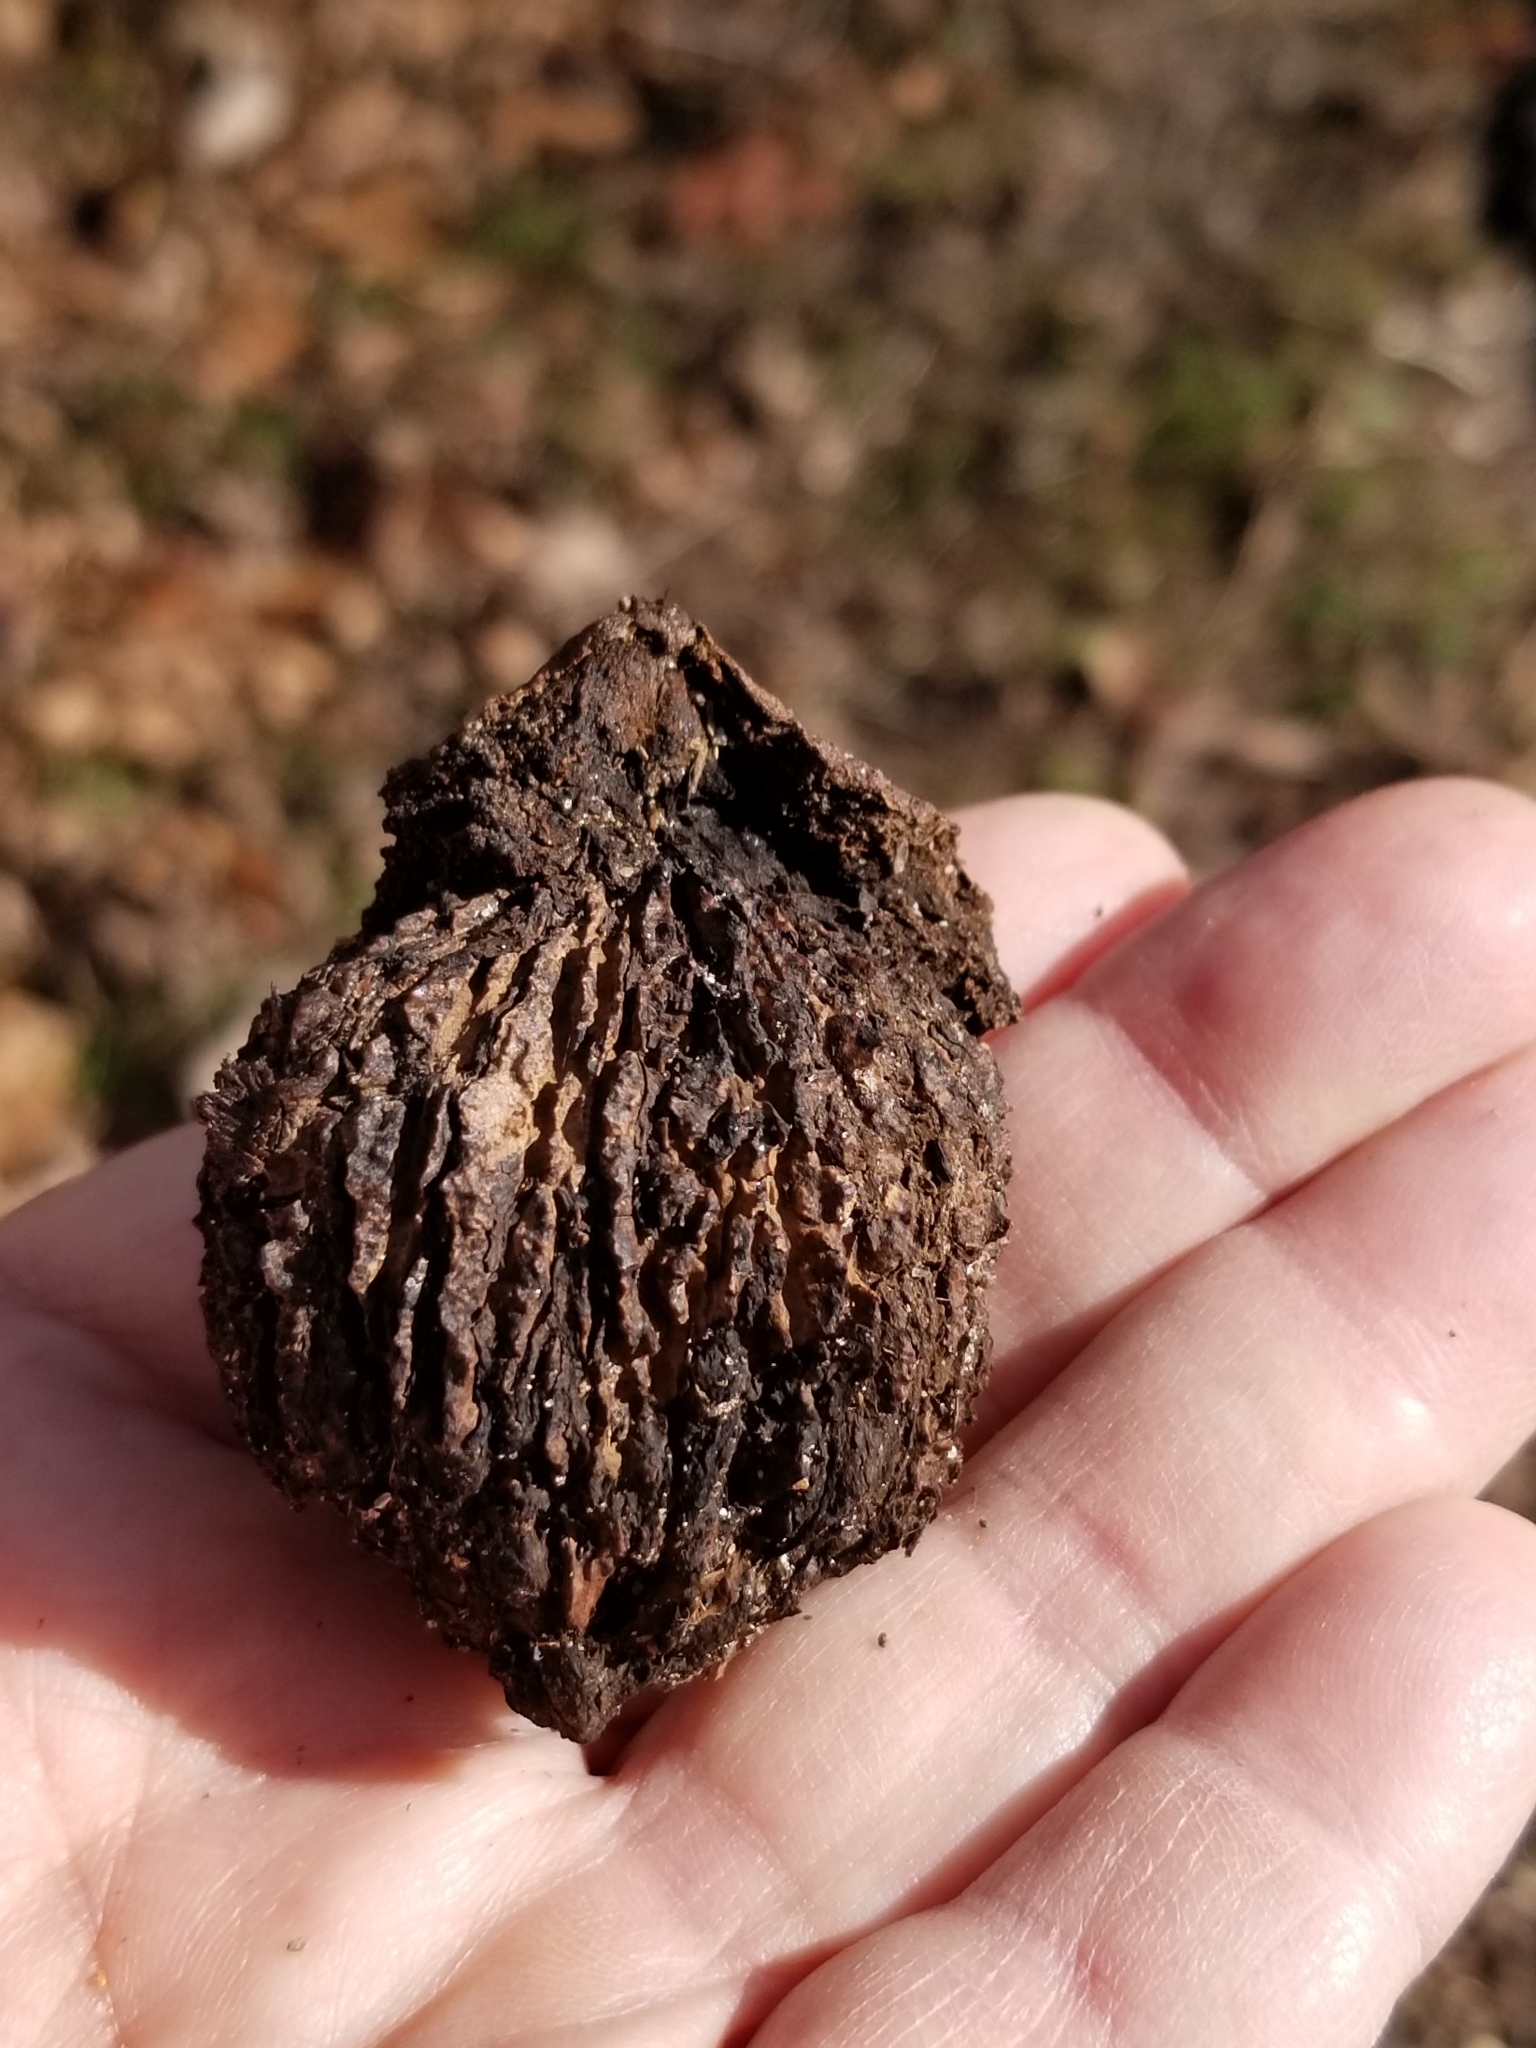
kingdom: Plantae
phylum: Tracheophyta
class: Magnoliopsida
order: Fagales
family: Juglandaceae
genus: Juglans
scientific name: Juglans nigra
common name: Black walnut
